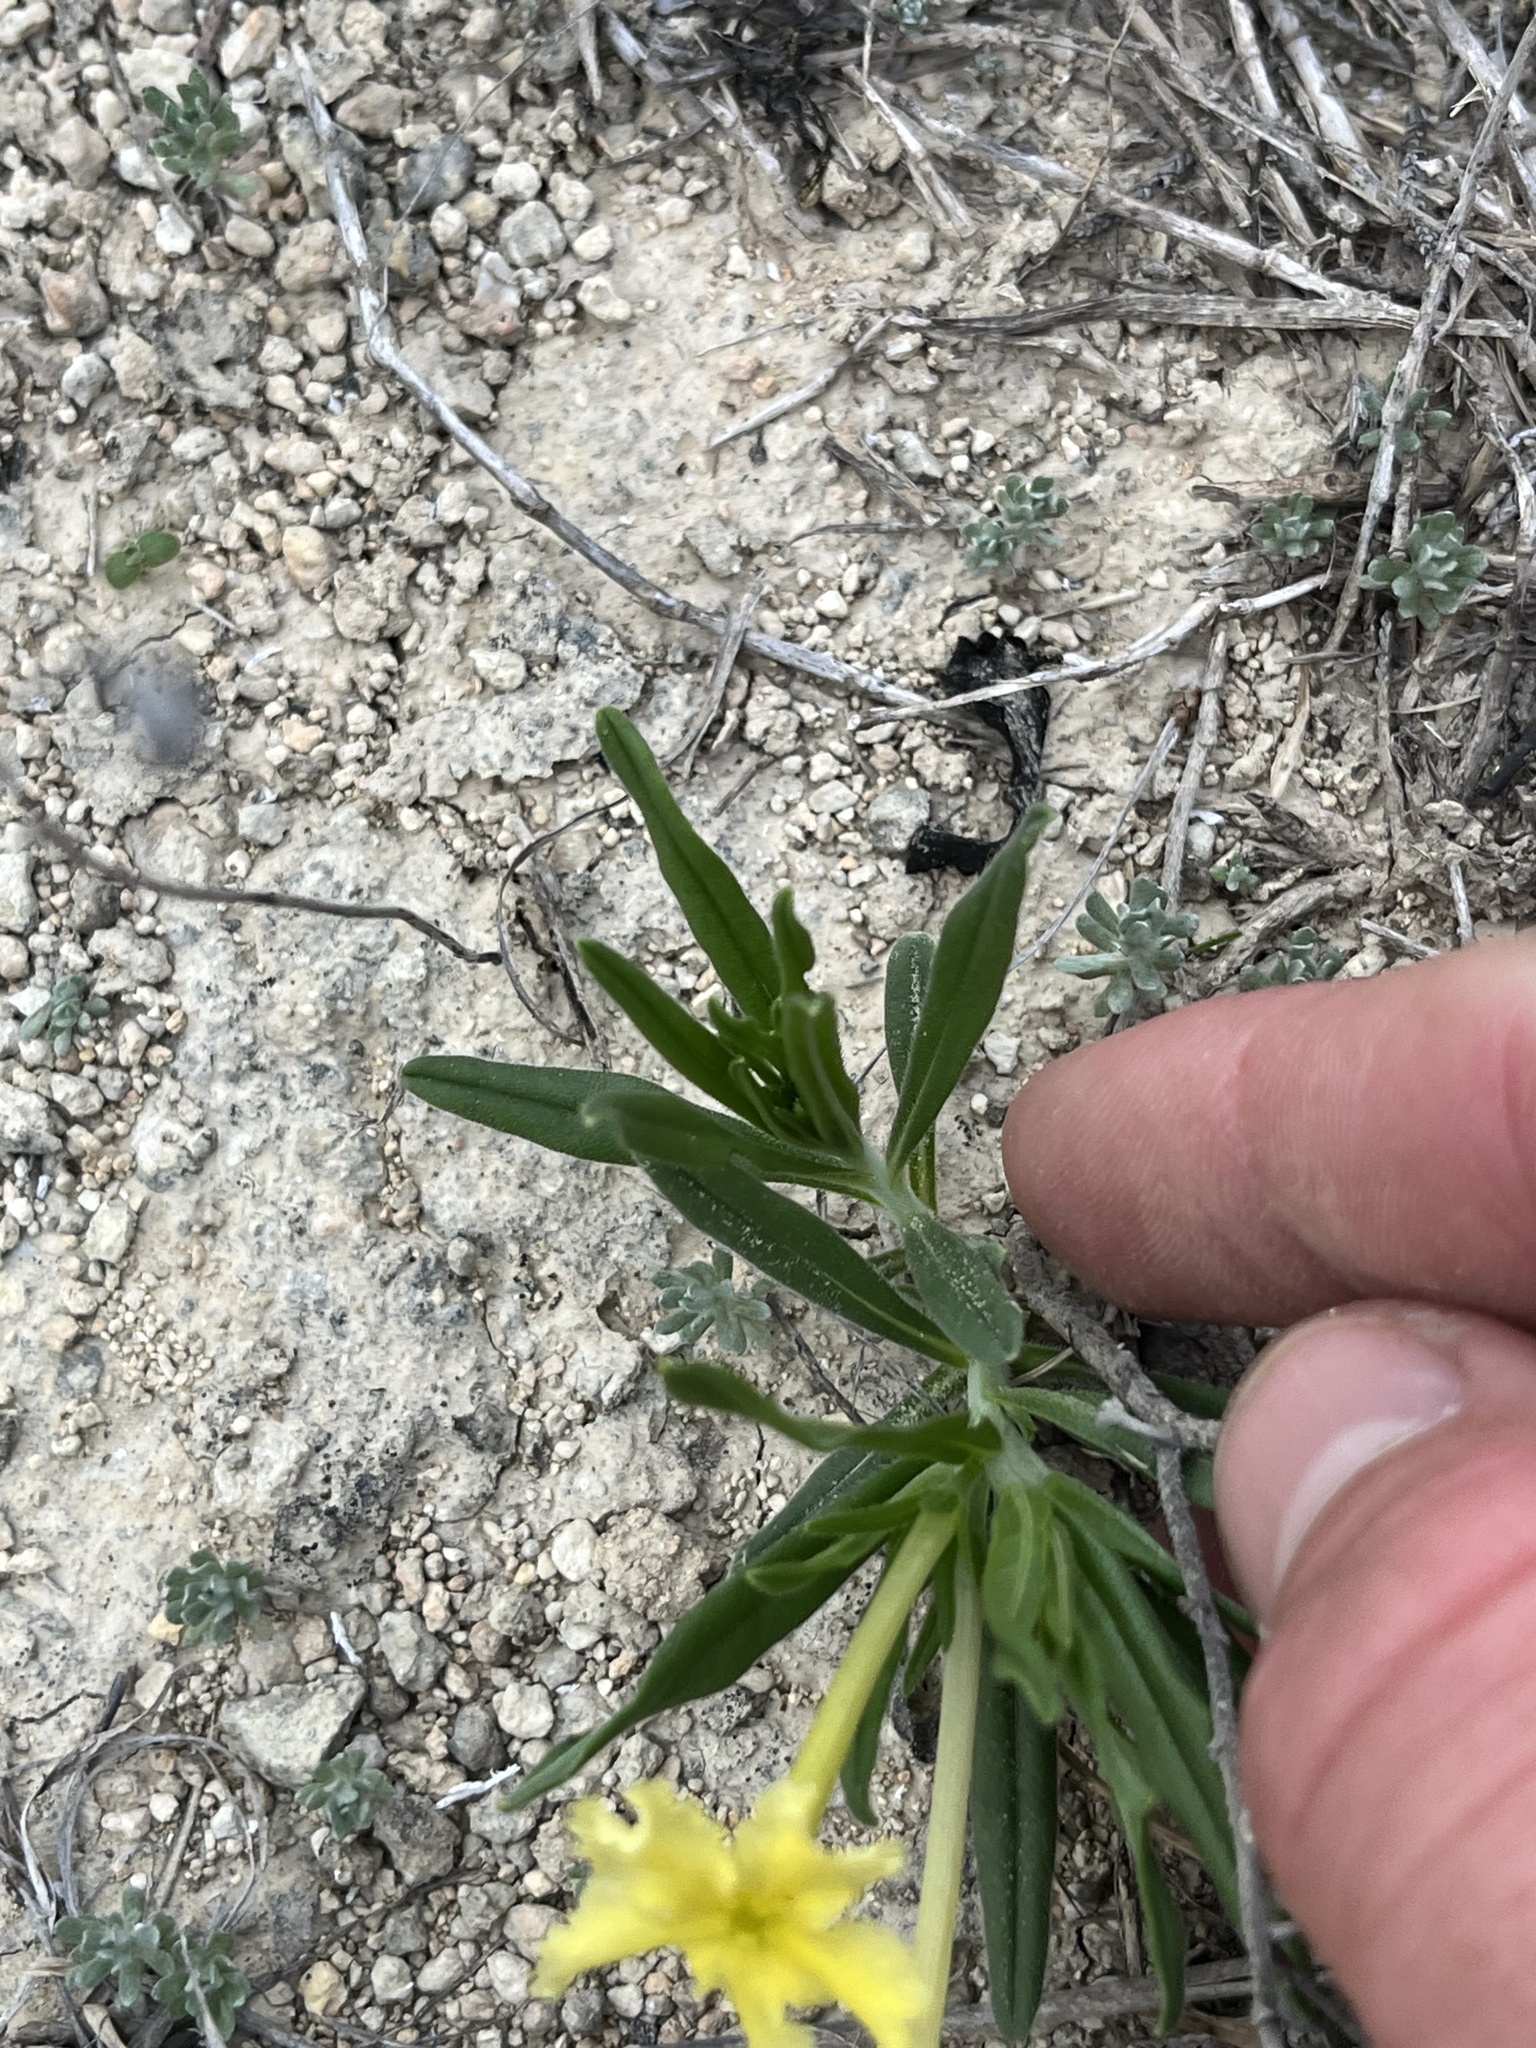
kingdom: Plantae
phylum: Tracheophyta
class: Magnoliopsida
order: Boraginales
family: Boraginaceae
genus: Lithospermum
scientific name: Lithospermum incisum
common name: Fringed gromwell
